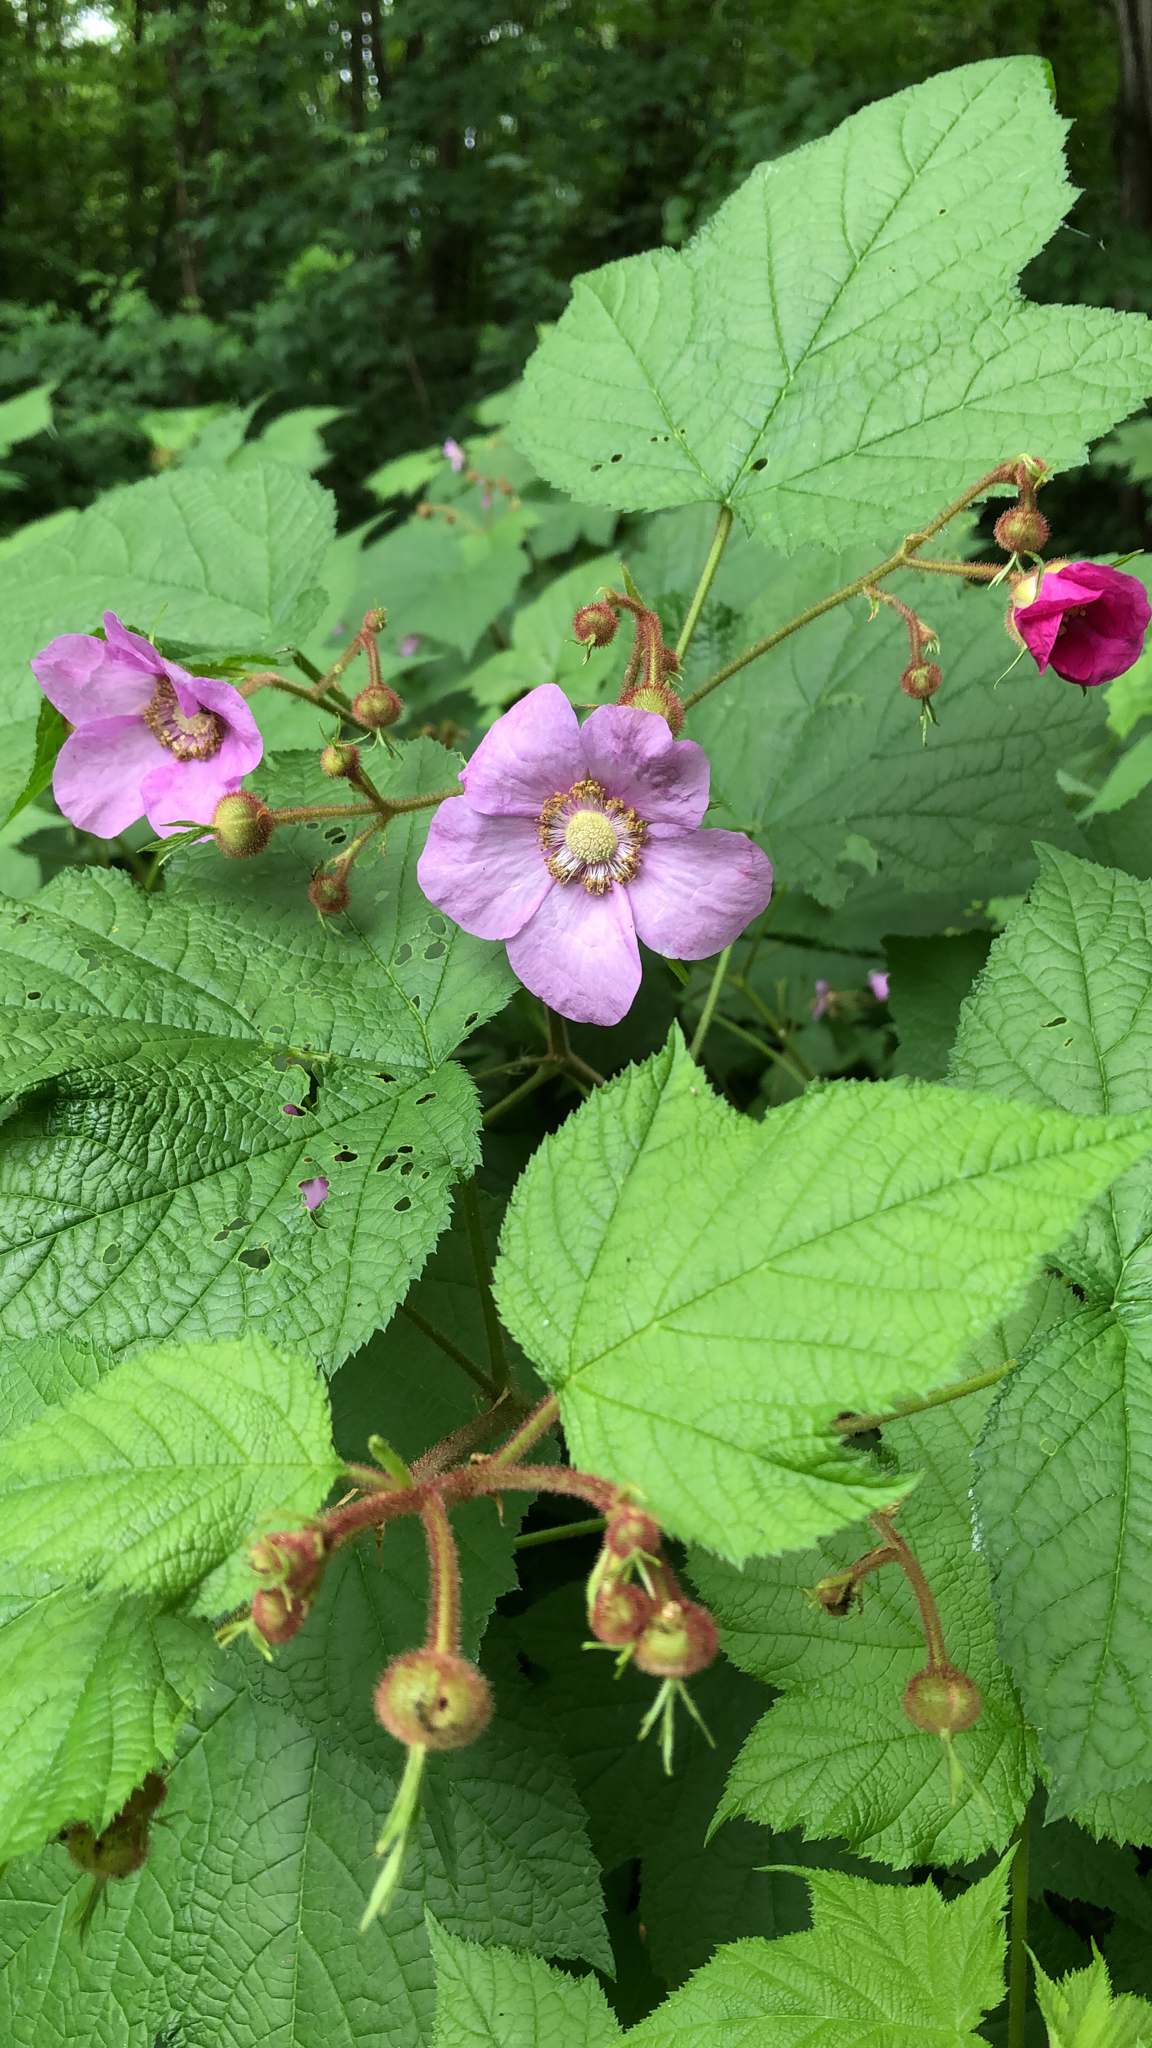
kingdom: Plantae
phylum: Tracheophyta
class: Magnoliopsida
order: Rosales
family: Rosaceae
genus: Rubus
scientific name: Rubus odoratus
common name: Purple-flowered raspberry
